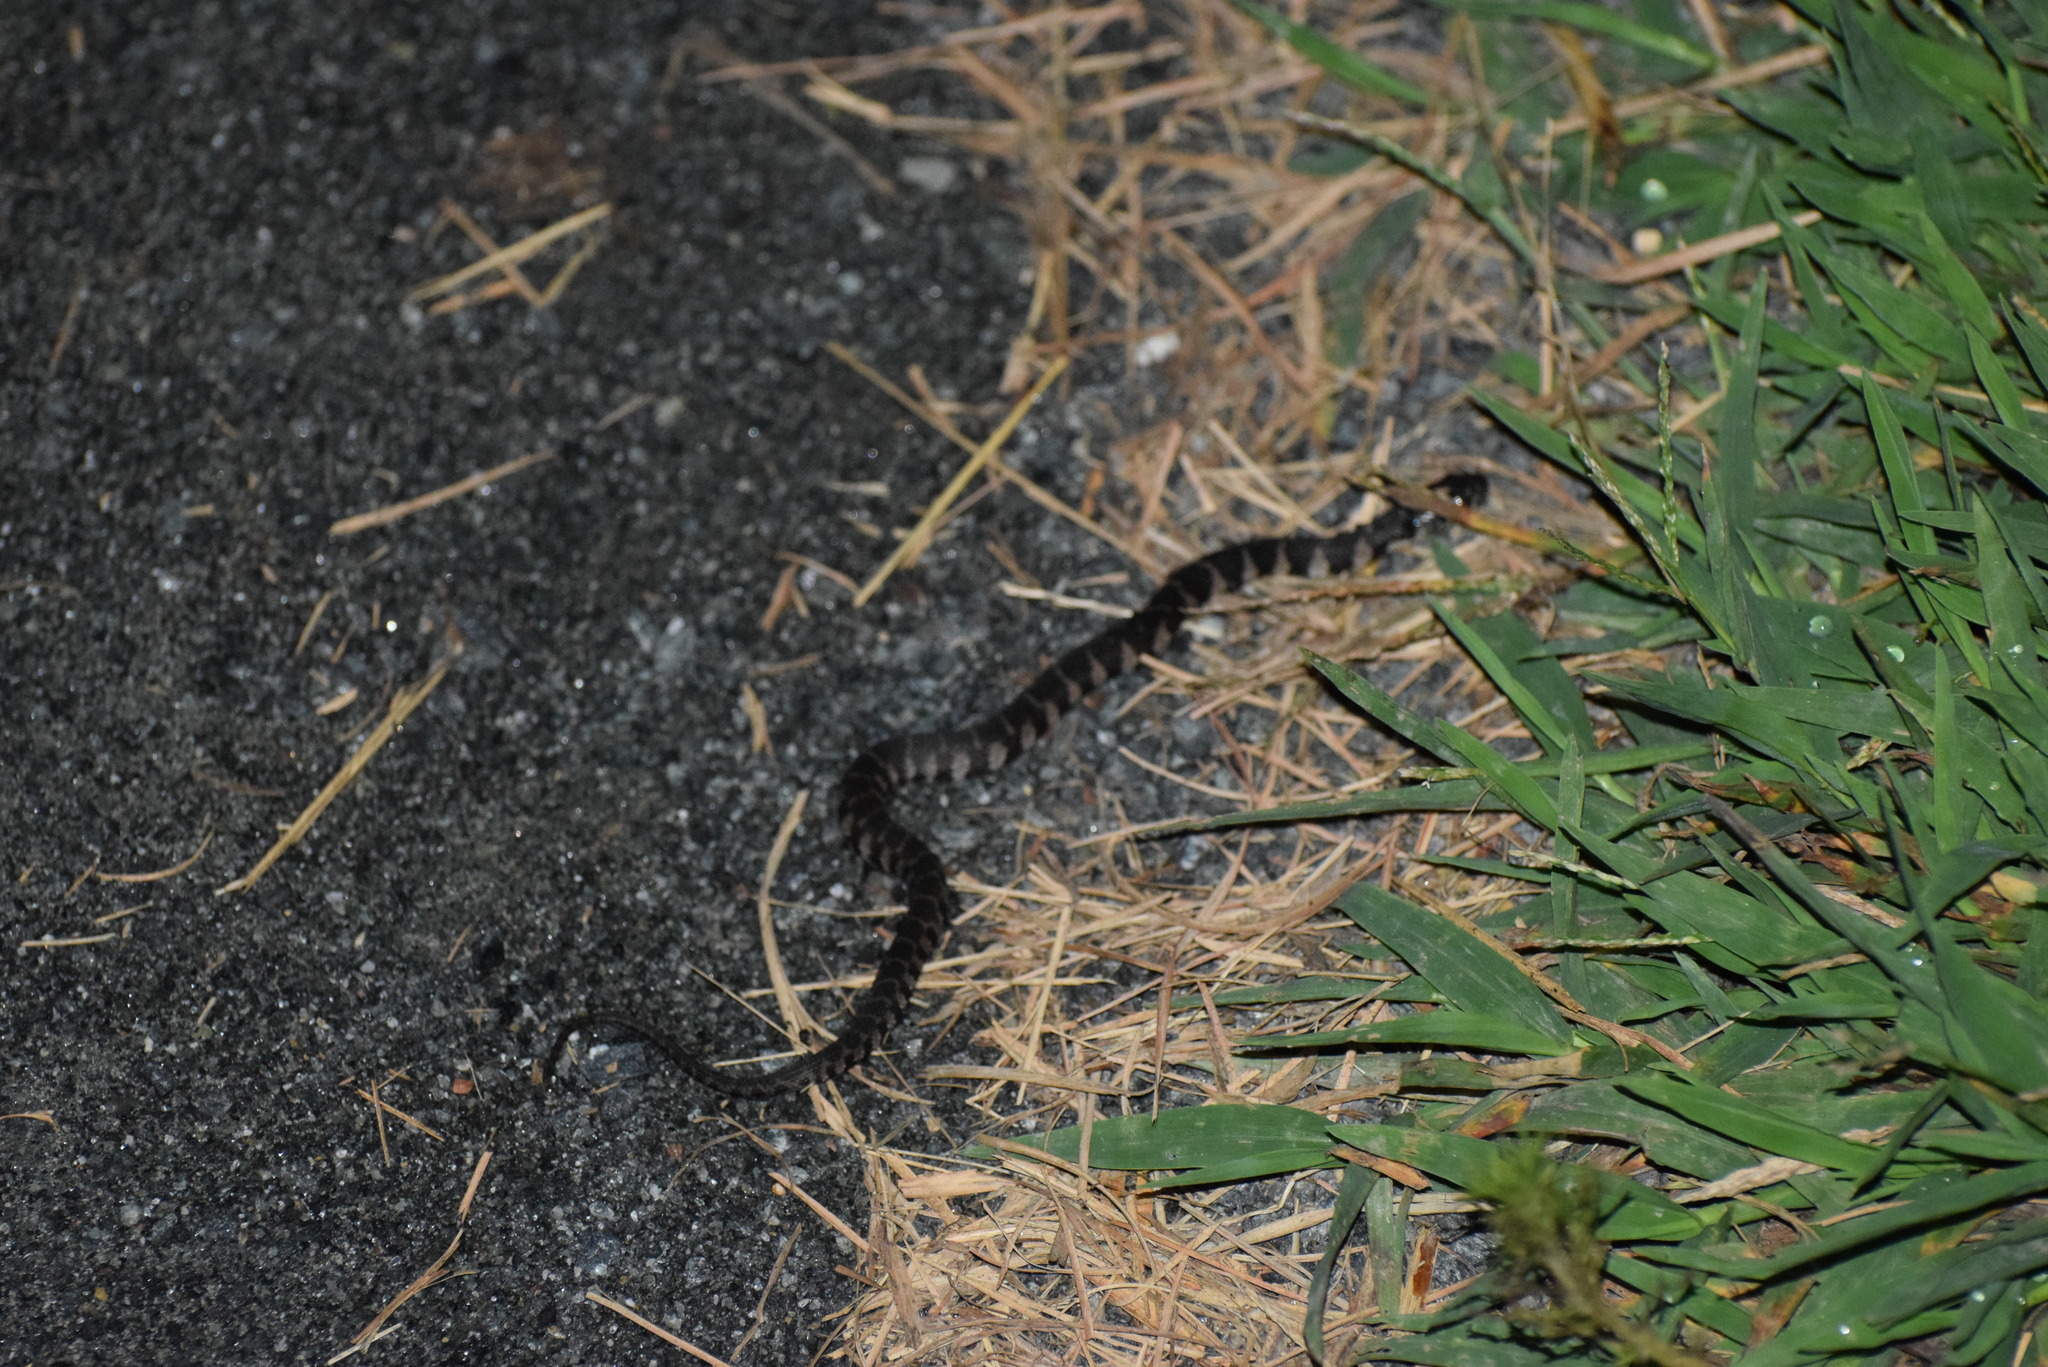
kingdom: Animalia
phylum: Chordata
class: Squamata
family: Colubridae
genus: Nerodia
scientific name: Nerodia sipedon
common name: Northern water snake
